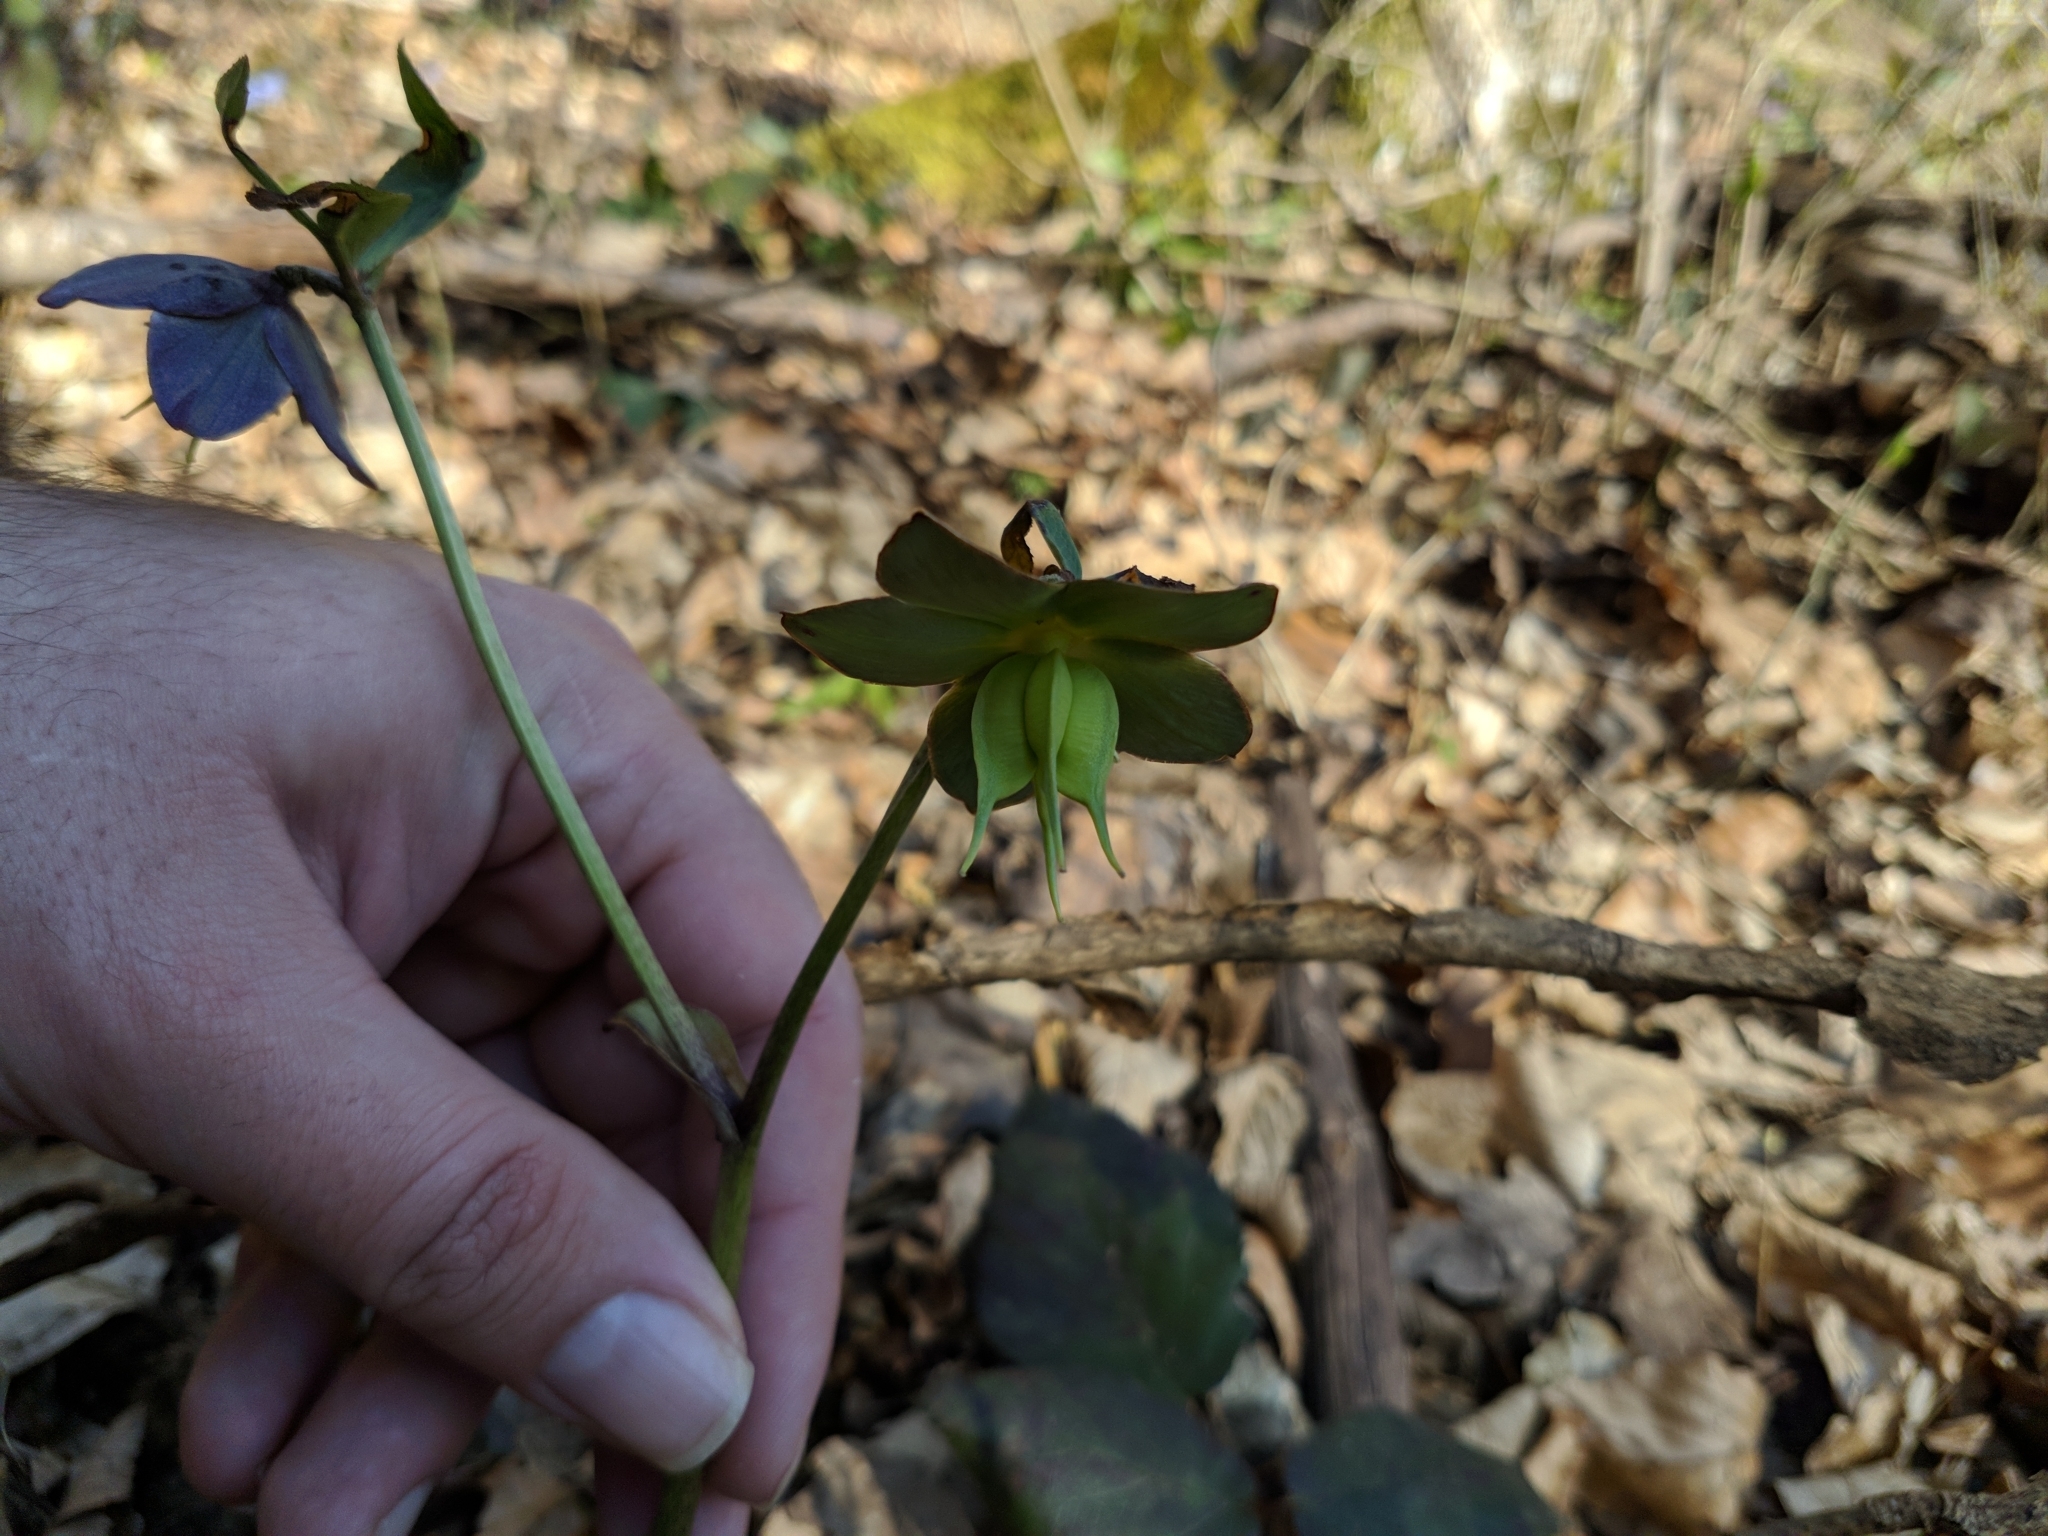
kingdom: Plantae
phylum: Tracheophyta
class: Magnoliopsida
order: Ranunculales
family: Ranunculaceae
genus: Helleborus
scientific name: Helleborus dumetorum
